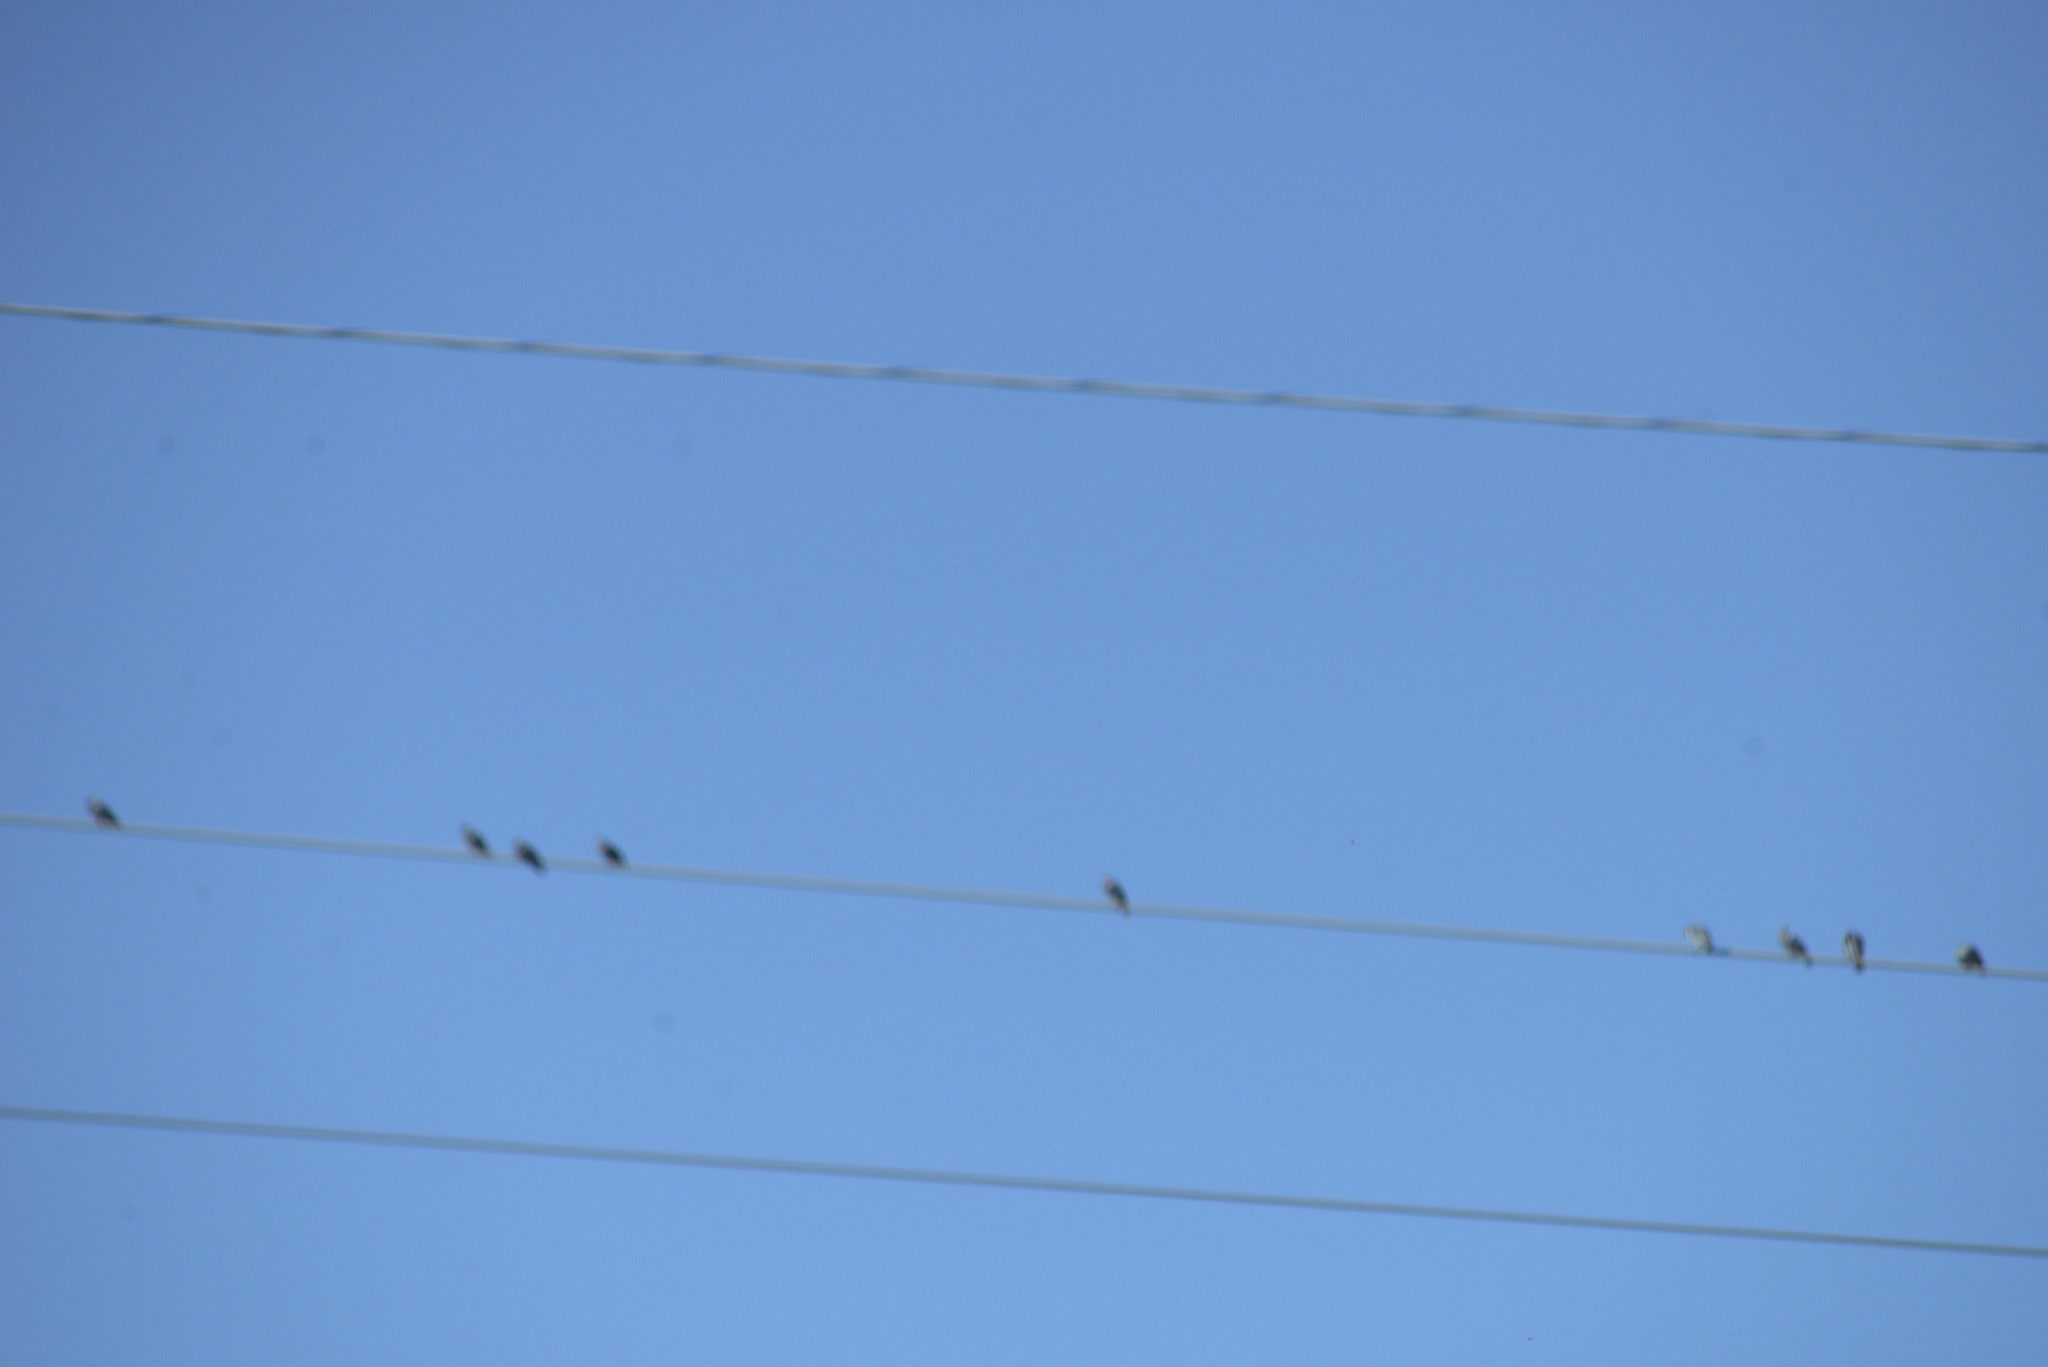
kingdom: Animalia
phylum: Chordata
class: Aves
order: Columbiformes
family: Columbidae
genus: Columba
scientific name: Columba livia
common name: Rock pigeon
